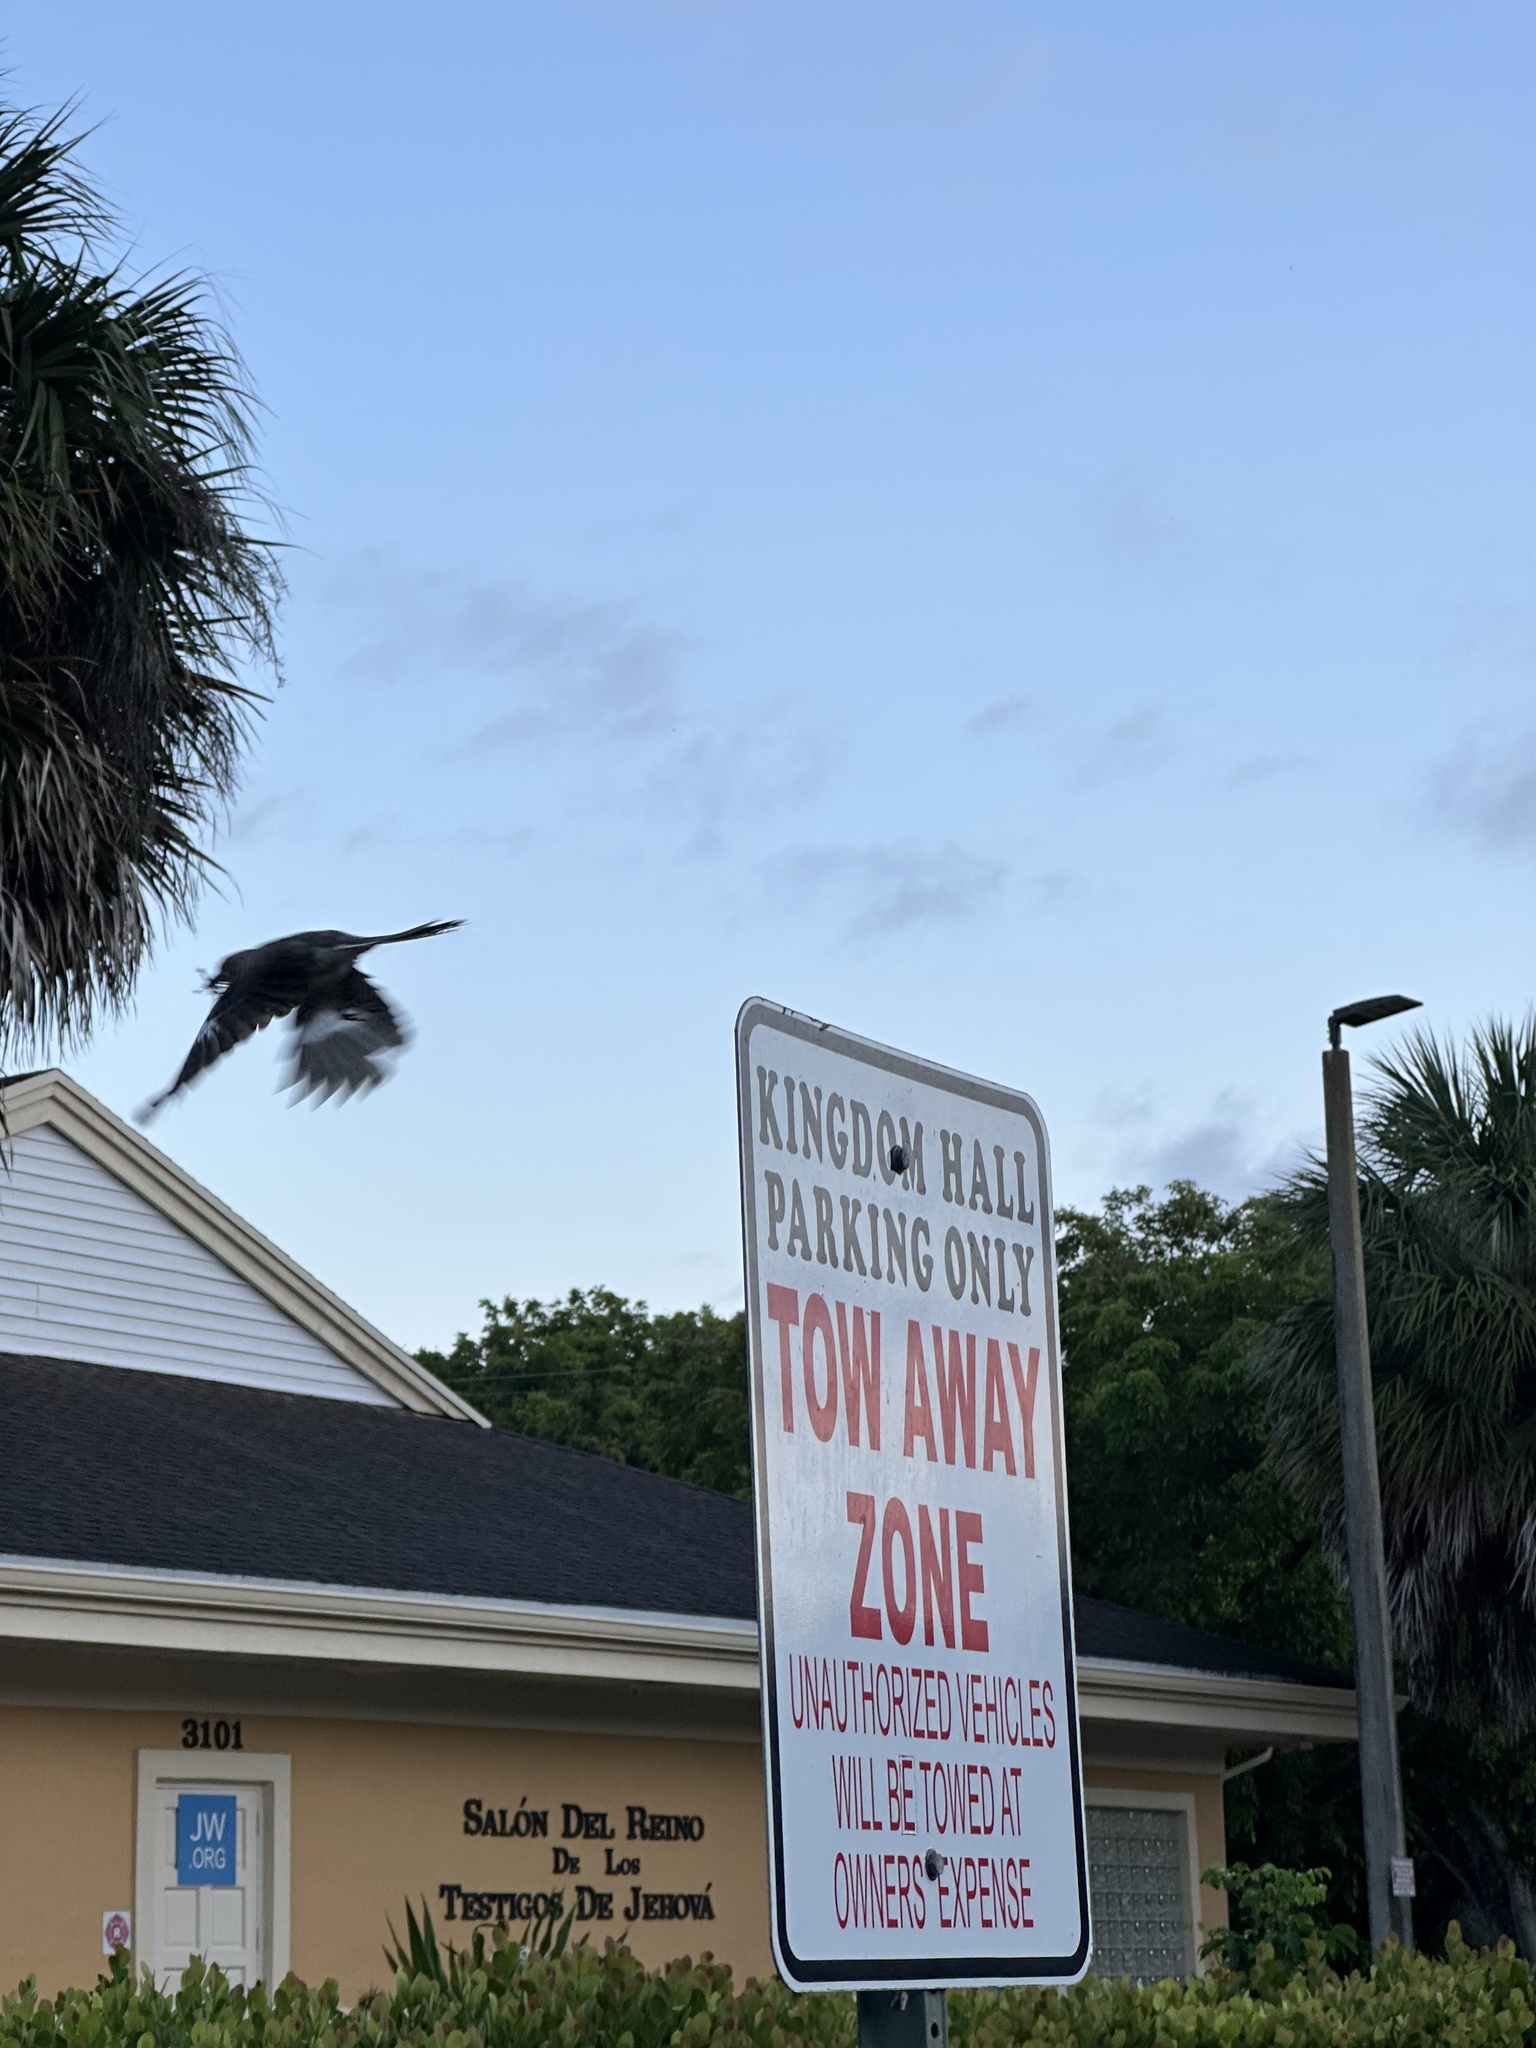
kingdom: Animalia
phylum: Chordata
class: Aves
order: Passeriformes
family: Mimidae
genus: Mimus
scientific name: Mimus polyglottos
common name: Northern mockingbird
